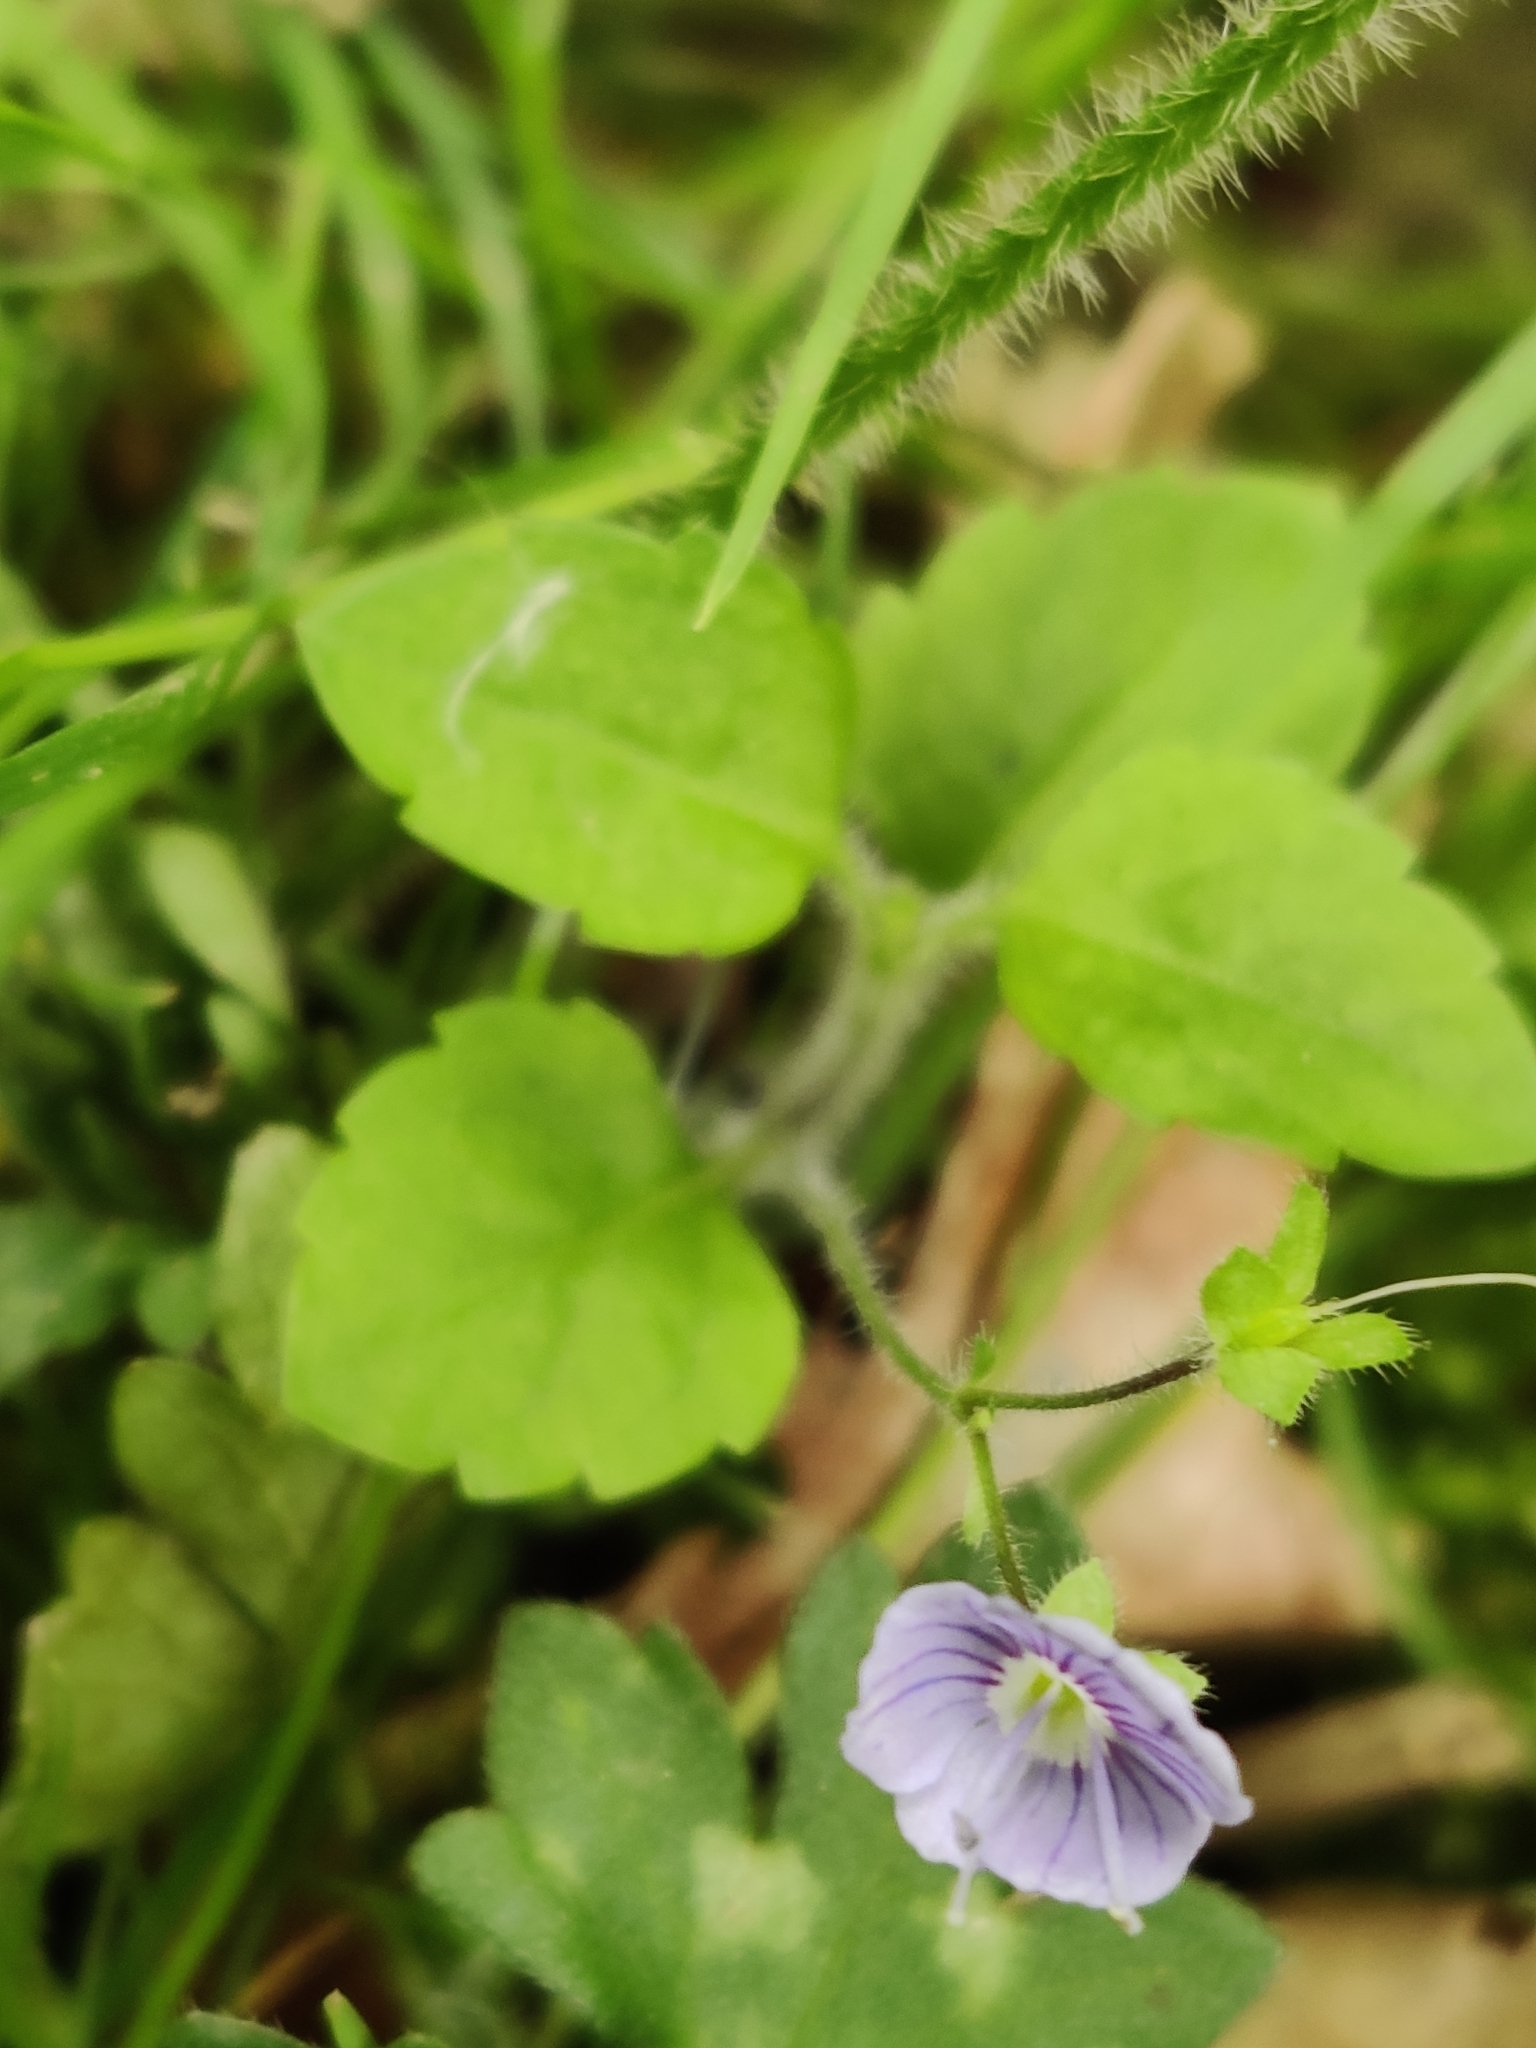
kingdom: Plantae
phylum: Tracheophyta
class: Magnoliopsida
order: Lamiales
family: Plantaginaceae
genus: Veronica
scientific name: Veronica montana
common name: Wood speedwell
